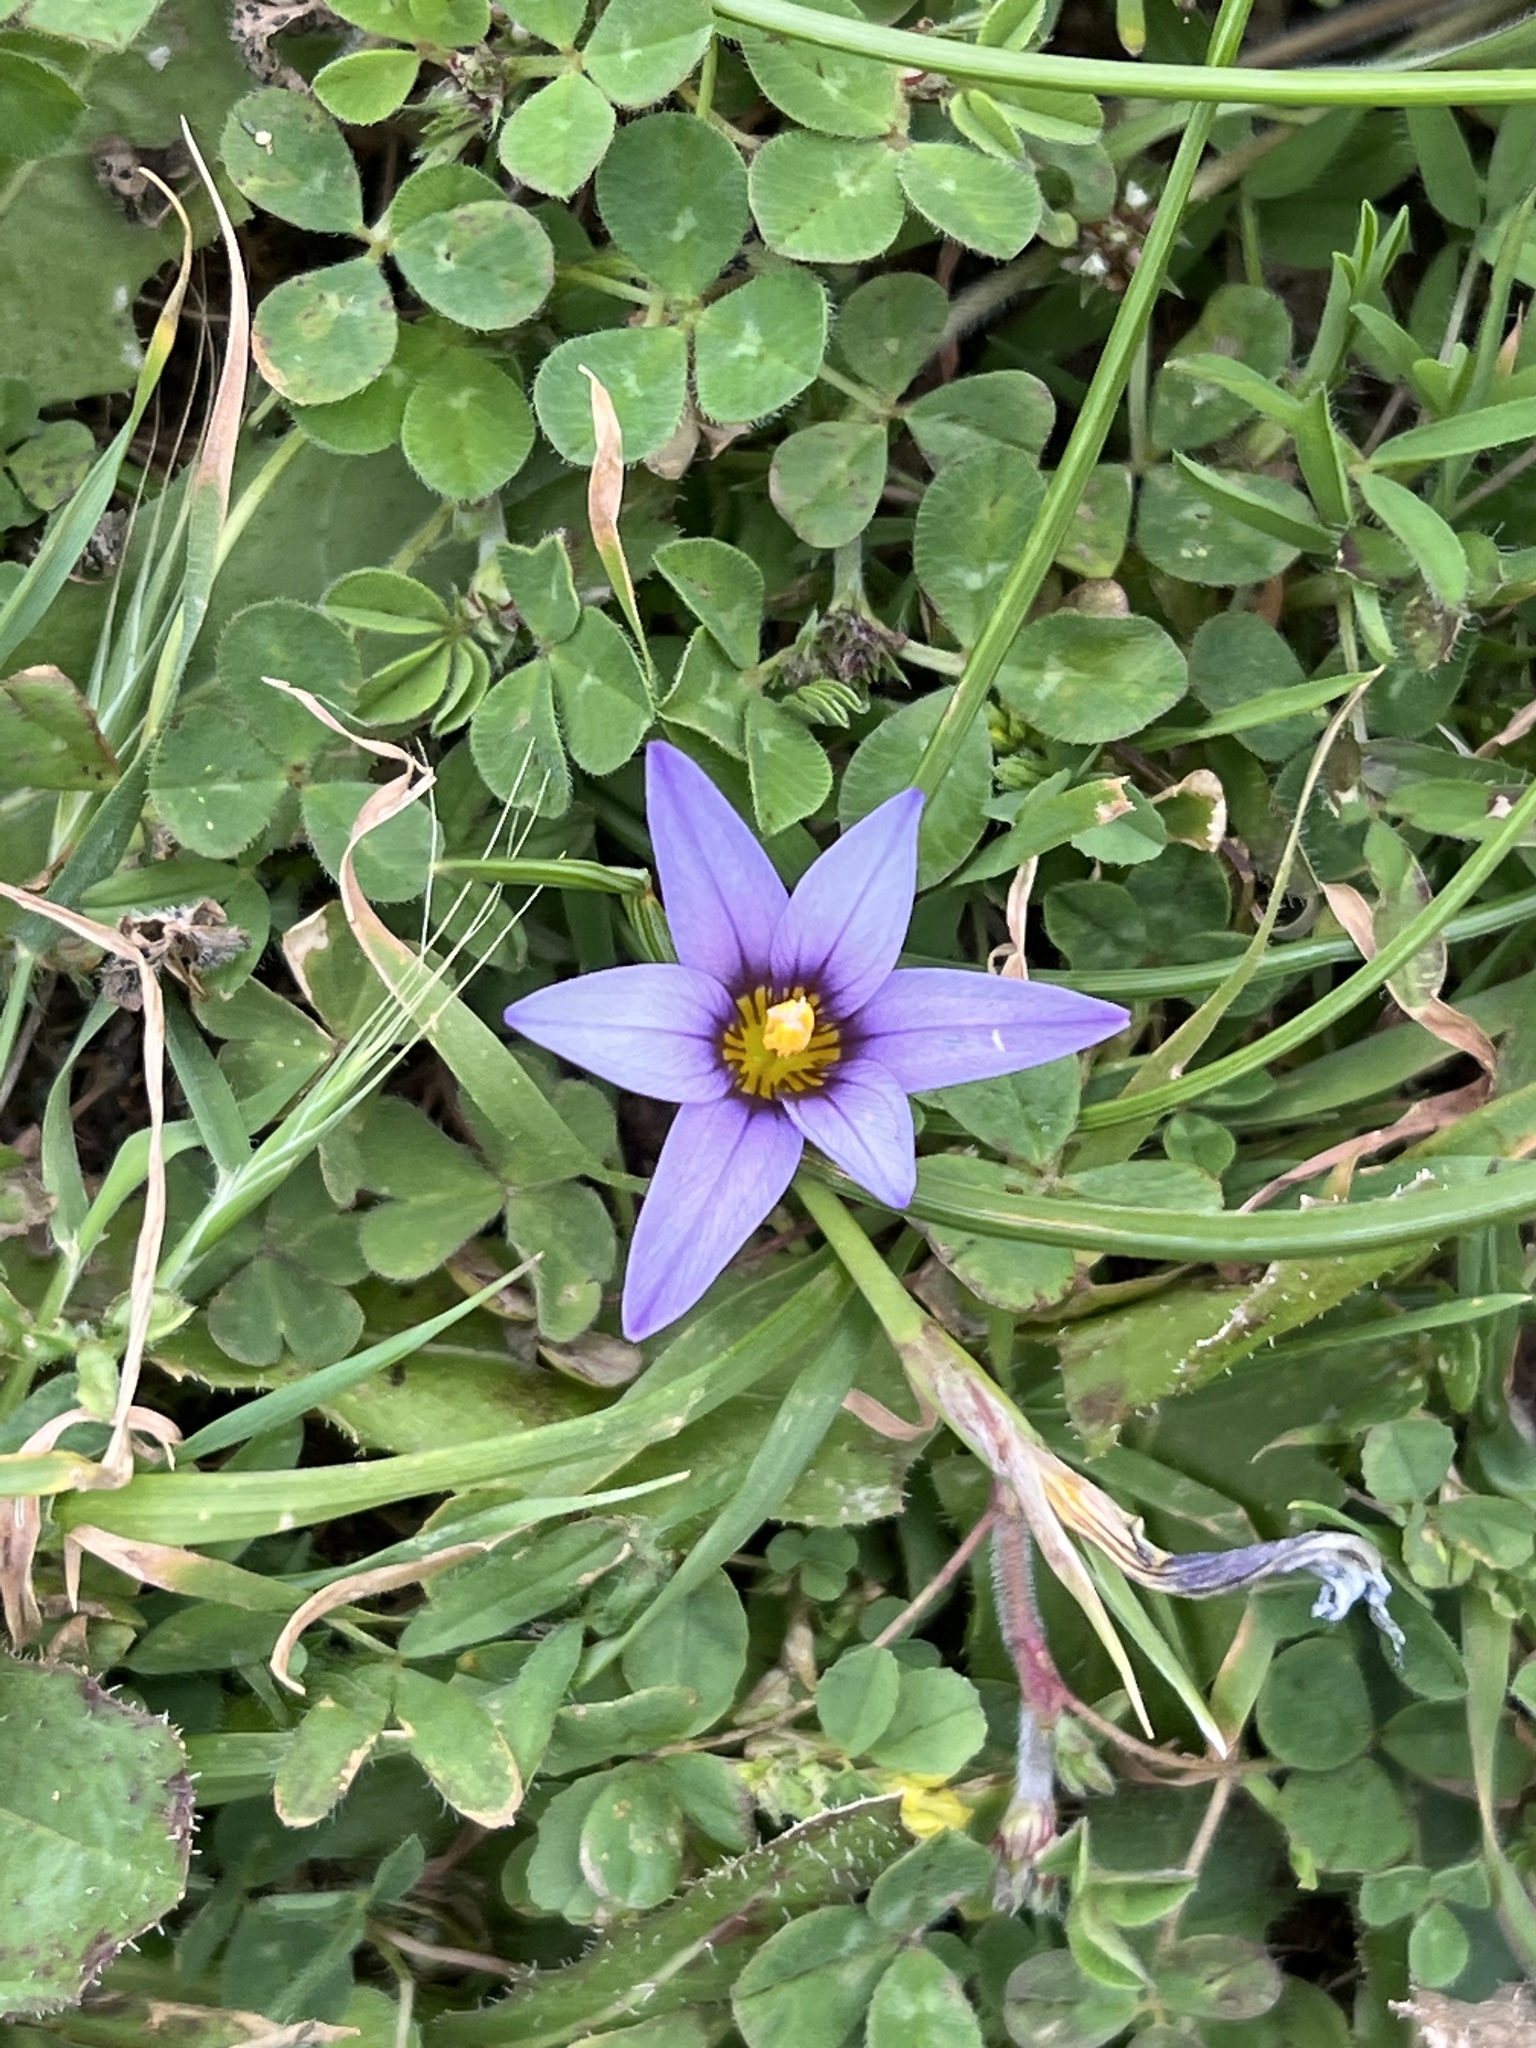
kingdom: Plantae
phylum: Tracheophyta
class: Liliopsida
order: Asparagales
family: Iridaceae
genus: Romulea
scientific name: Romulea columnae
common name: Sand-crocus
